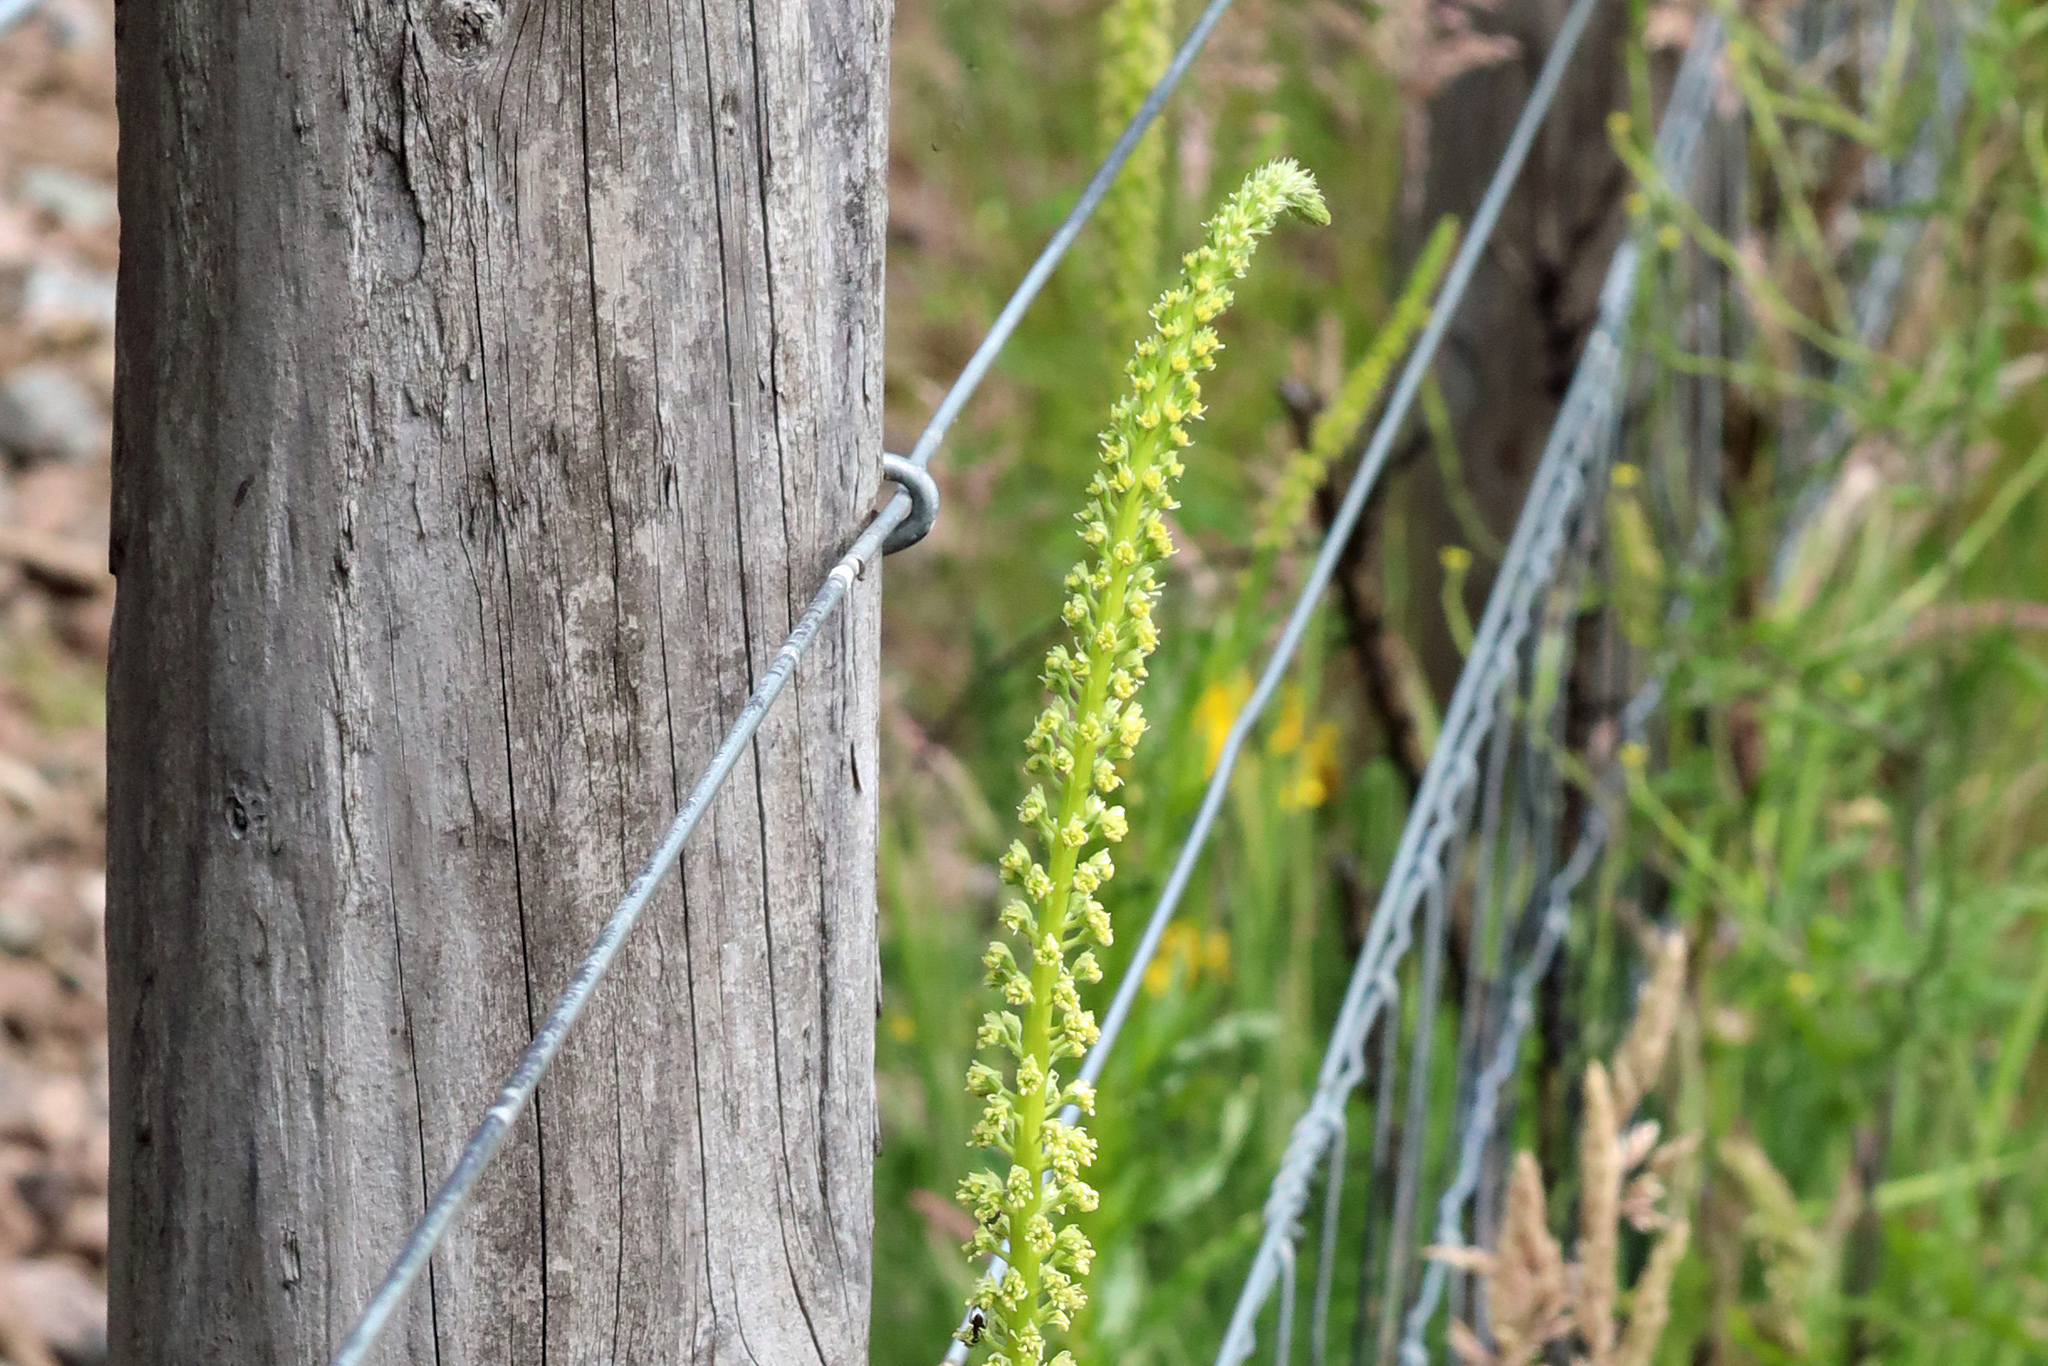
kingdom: Plantae
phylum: Tracheophyta
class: Magnoliopsida
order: Brassicales
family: Resedaceae
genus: Reseda
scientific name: Reseda luteola
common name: Weld
